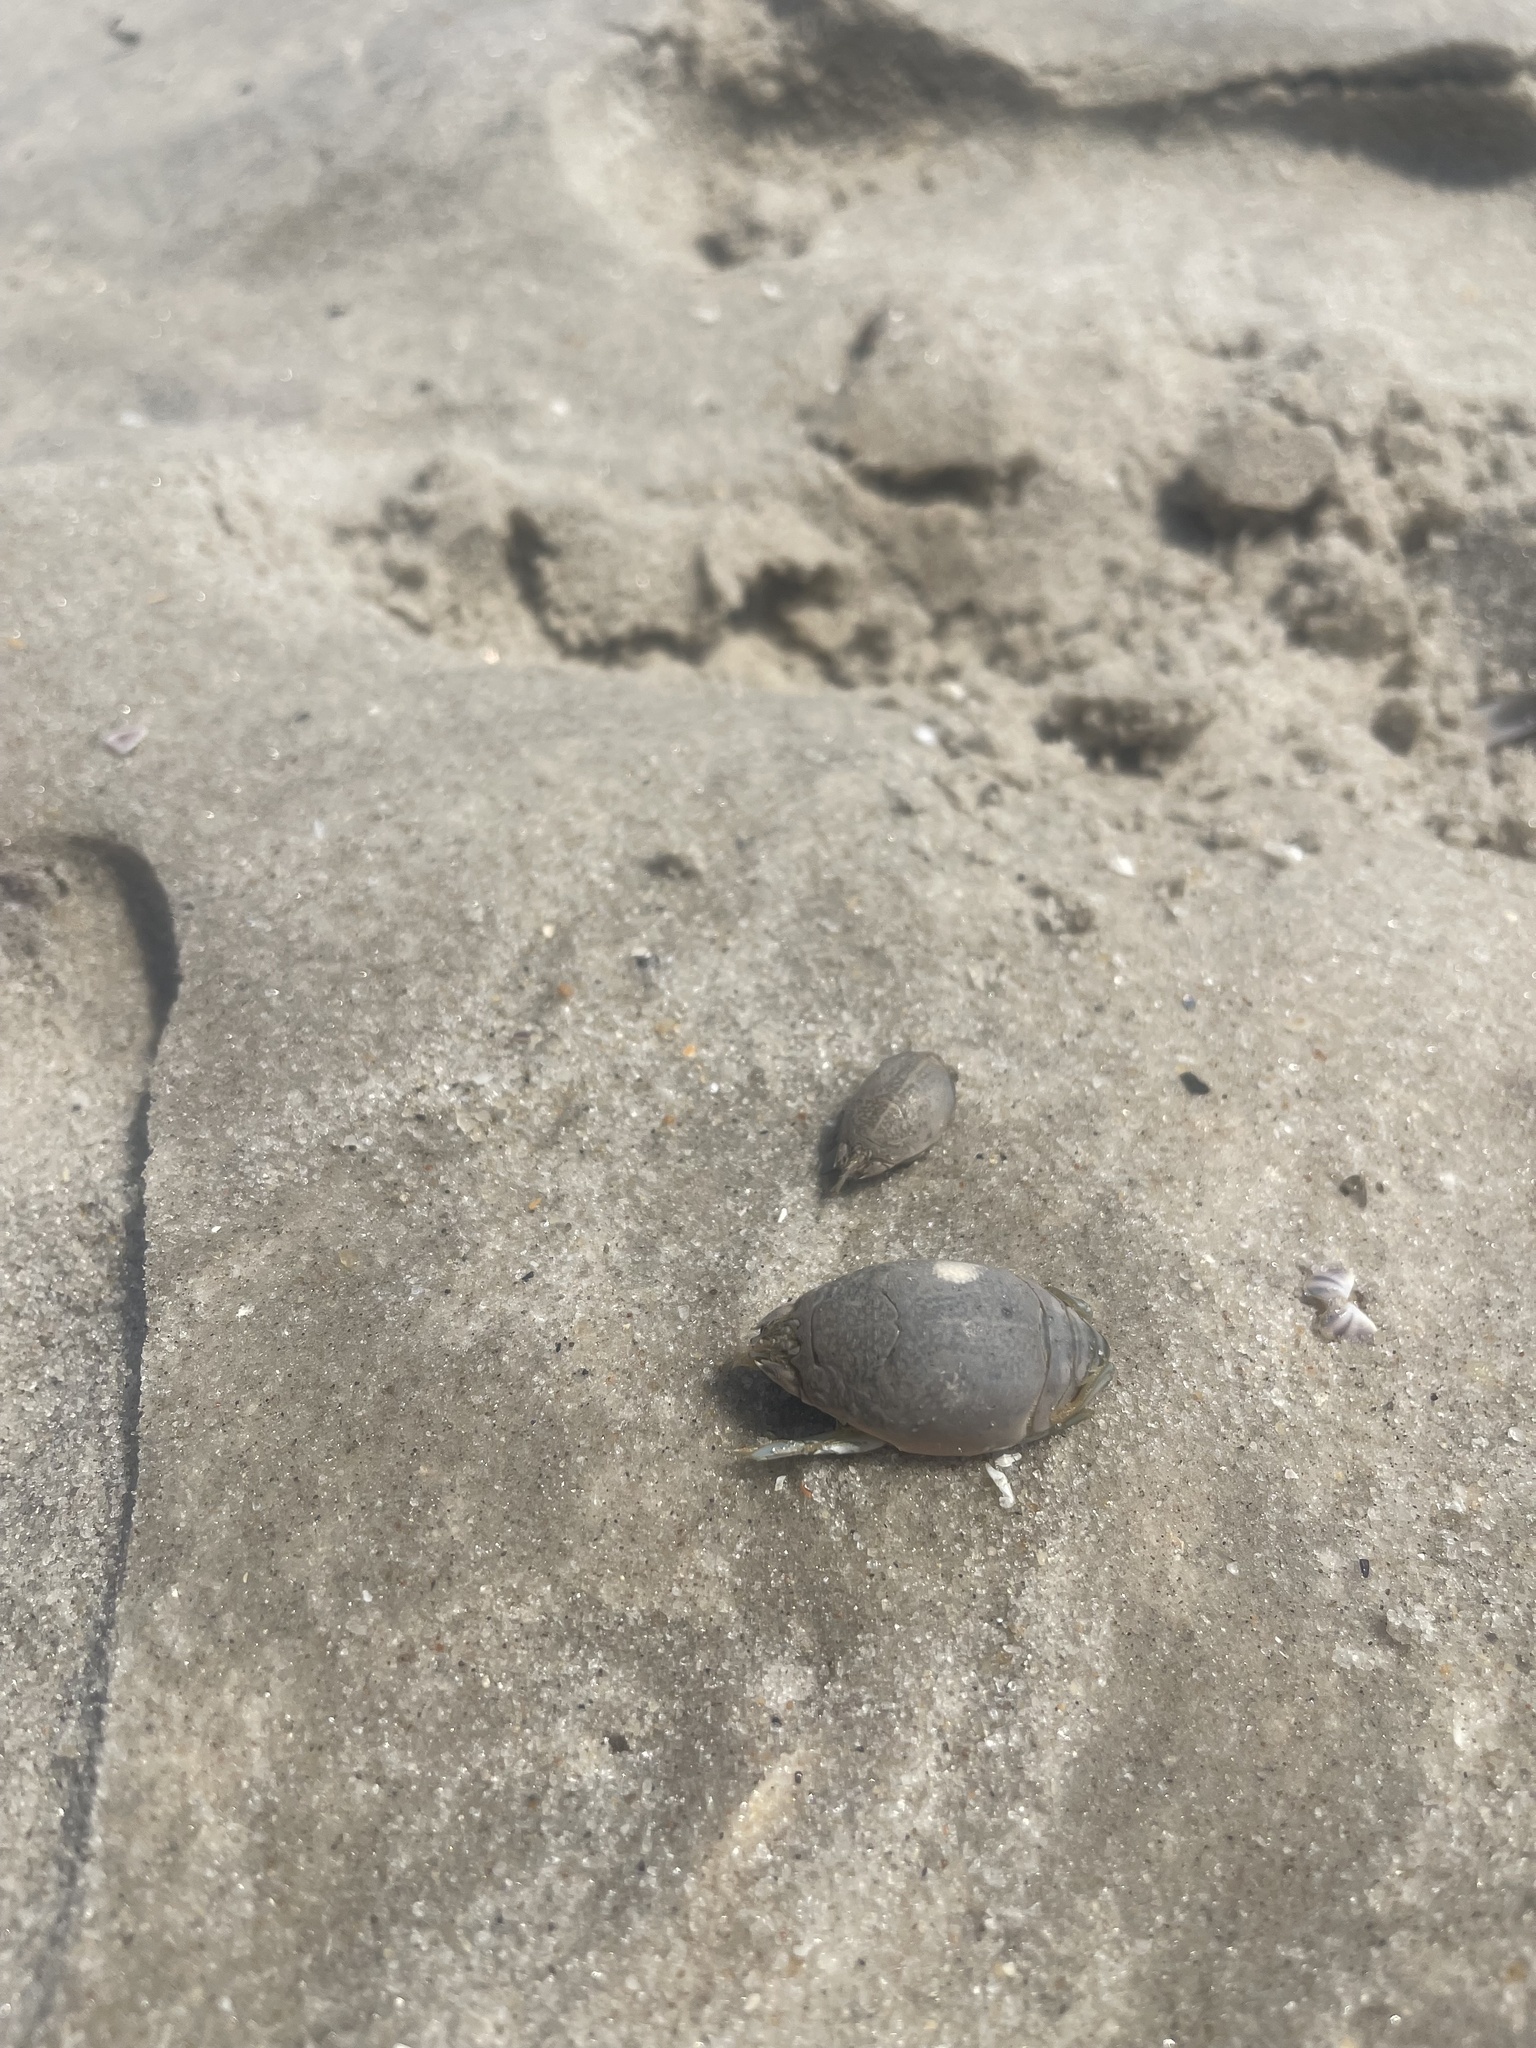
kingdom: Animalia
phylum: Arthropoda
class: Malacostraca
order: Decapoda
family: Hippidae
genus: Emerita
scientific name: Emerita talpoida
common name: Atlantic sand crab
